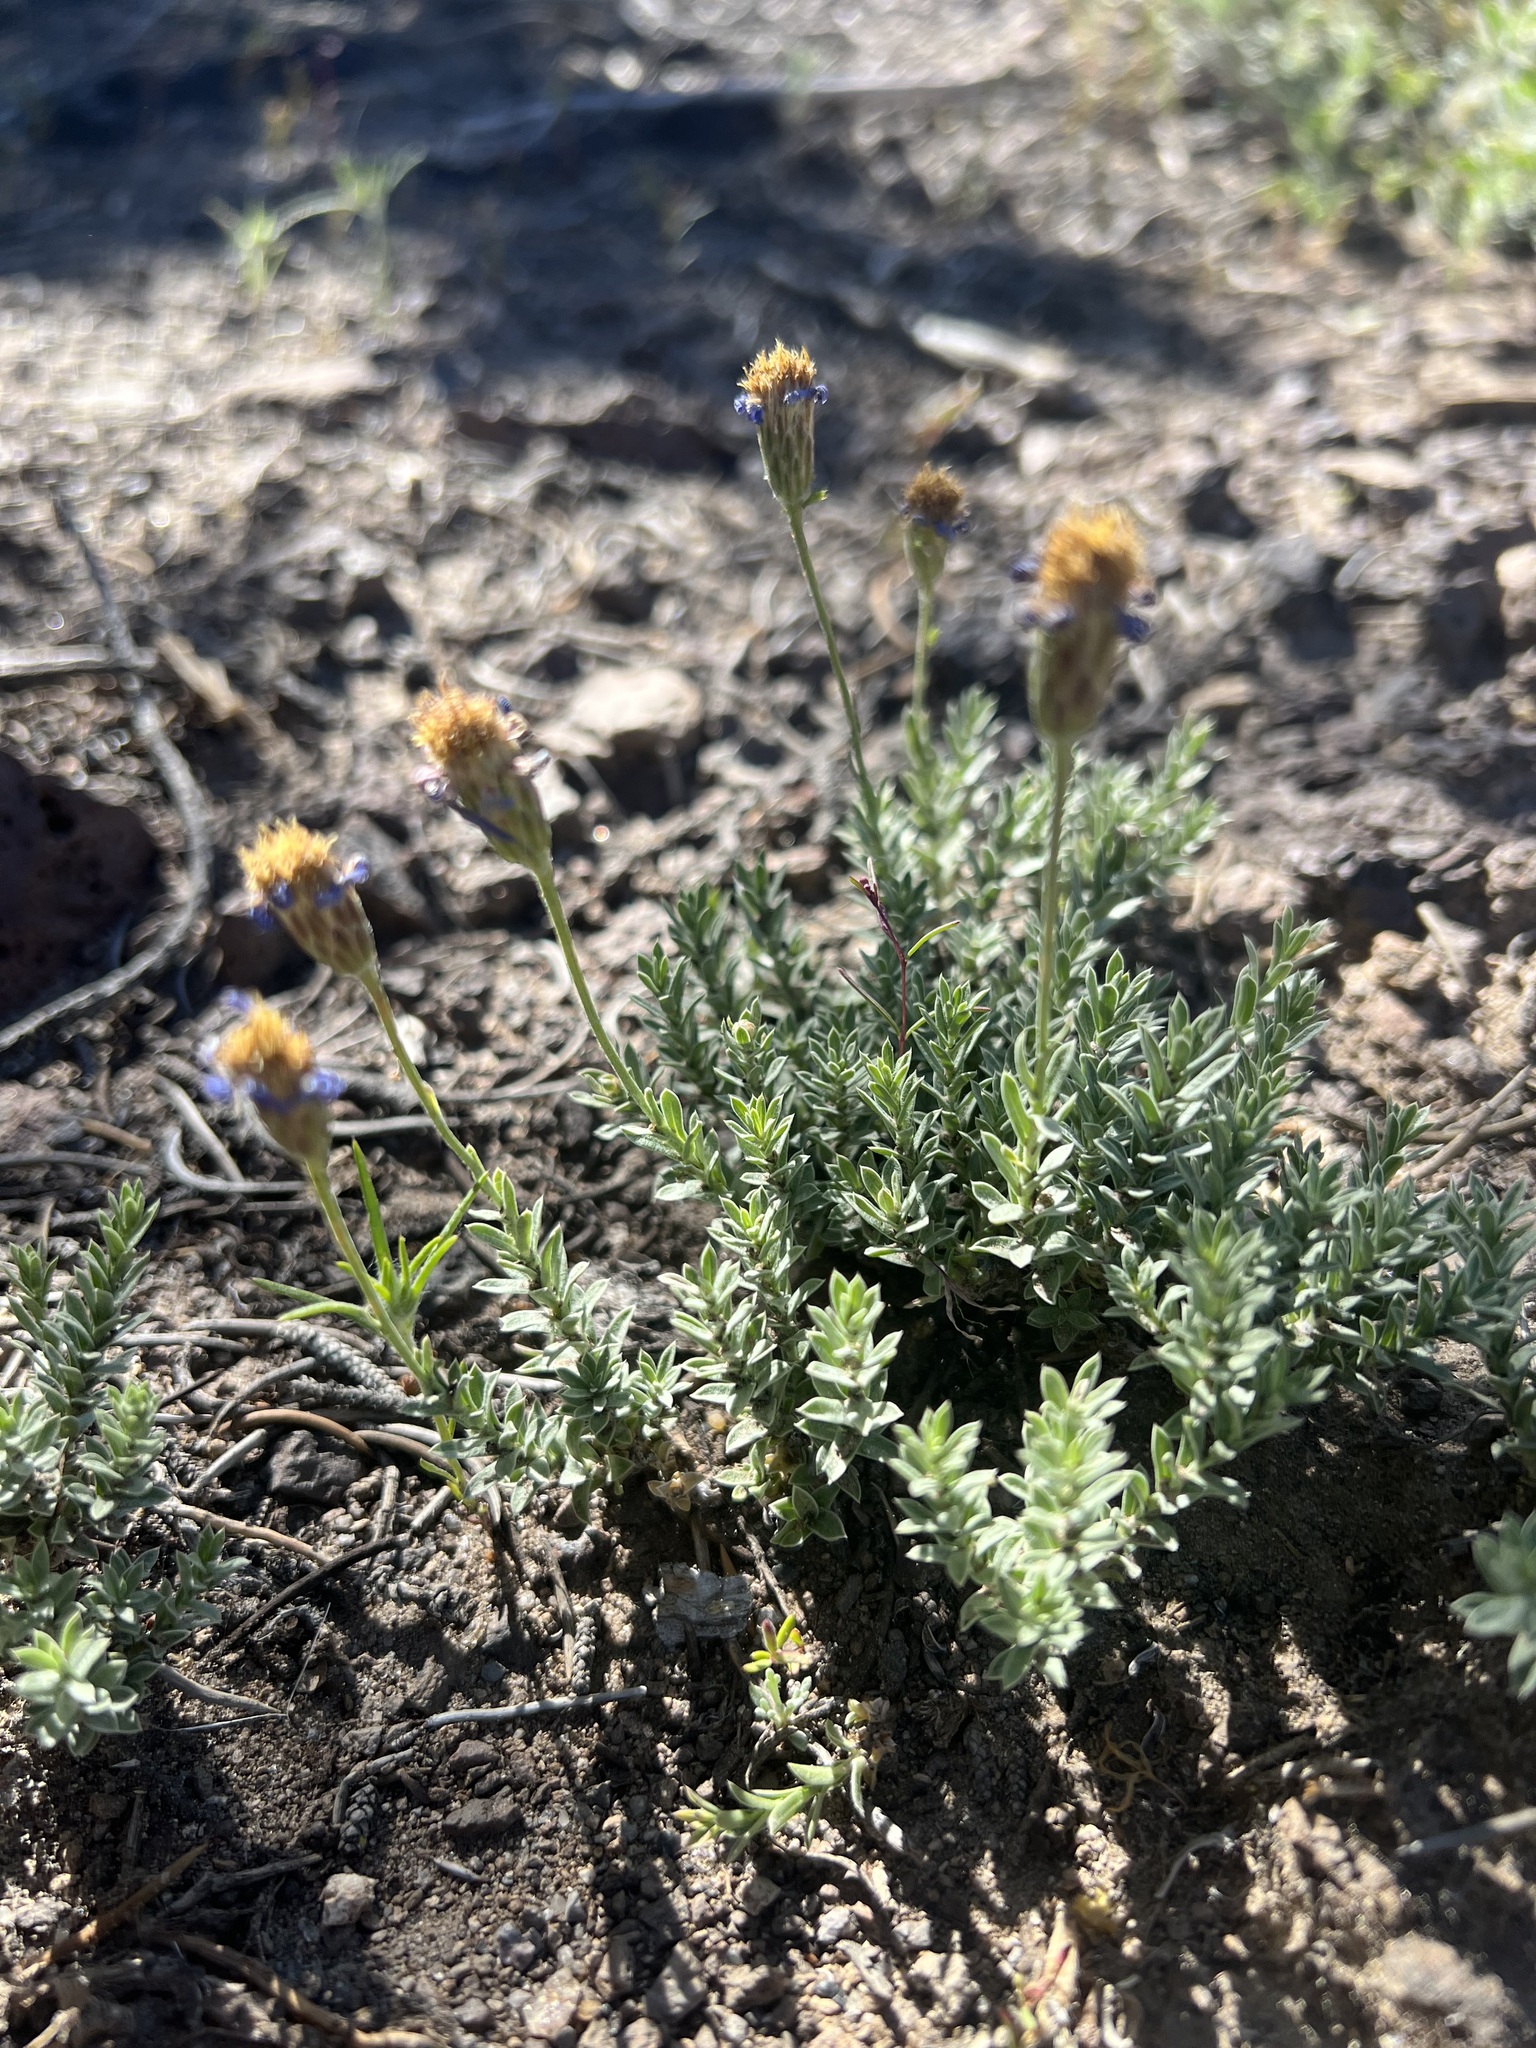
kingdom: Plantae
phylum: Tracheophyta
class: Magnoliopsida
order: Asterales
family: Asteraceae
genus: Ionactis
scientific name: Ionactis alpina
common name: Crag aster
